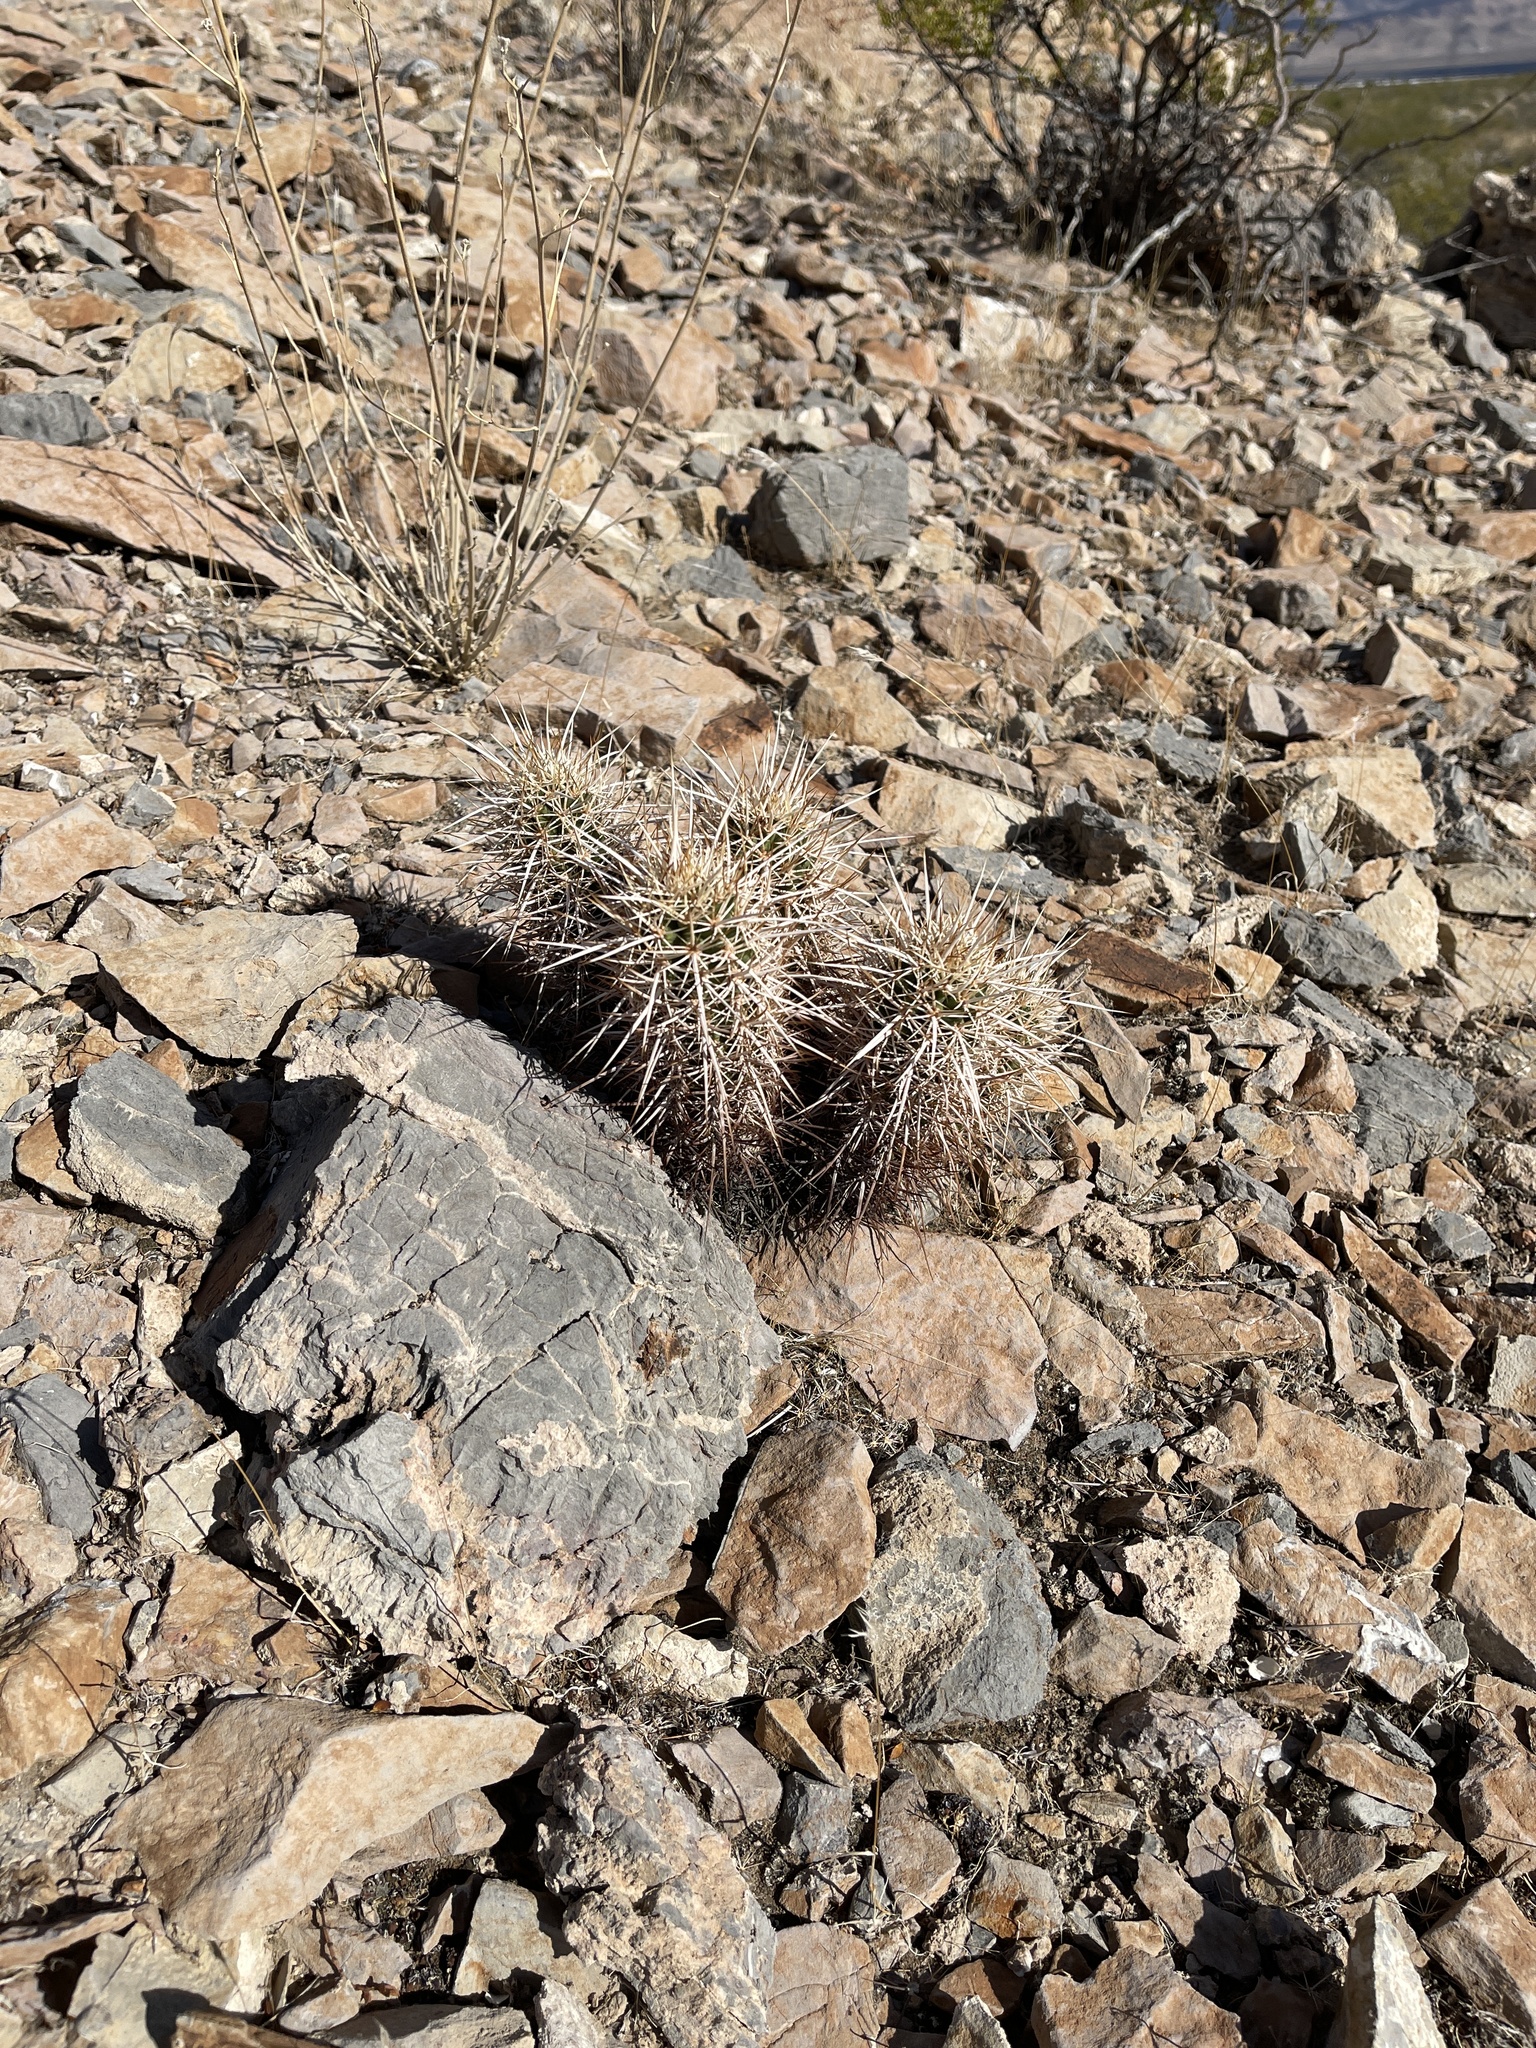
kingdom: Plantae
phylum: Tracheophyta
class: Magnoliopsida
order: Caryophyllales
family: Cactaceae
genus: Echinocereus
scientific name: Echinocereus engelmannii
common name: Engelmann's hedgehog cactus
